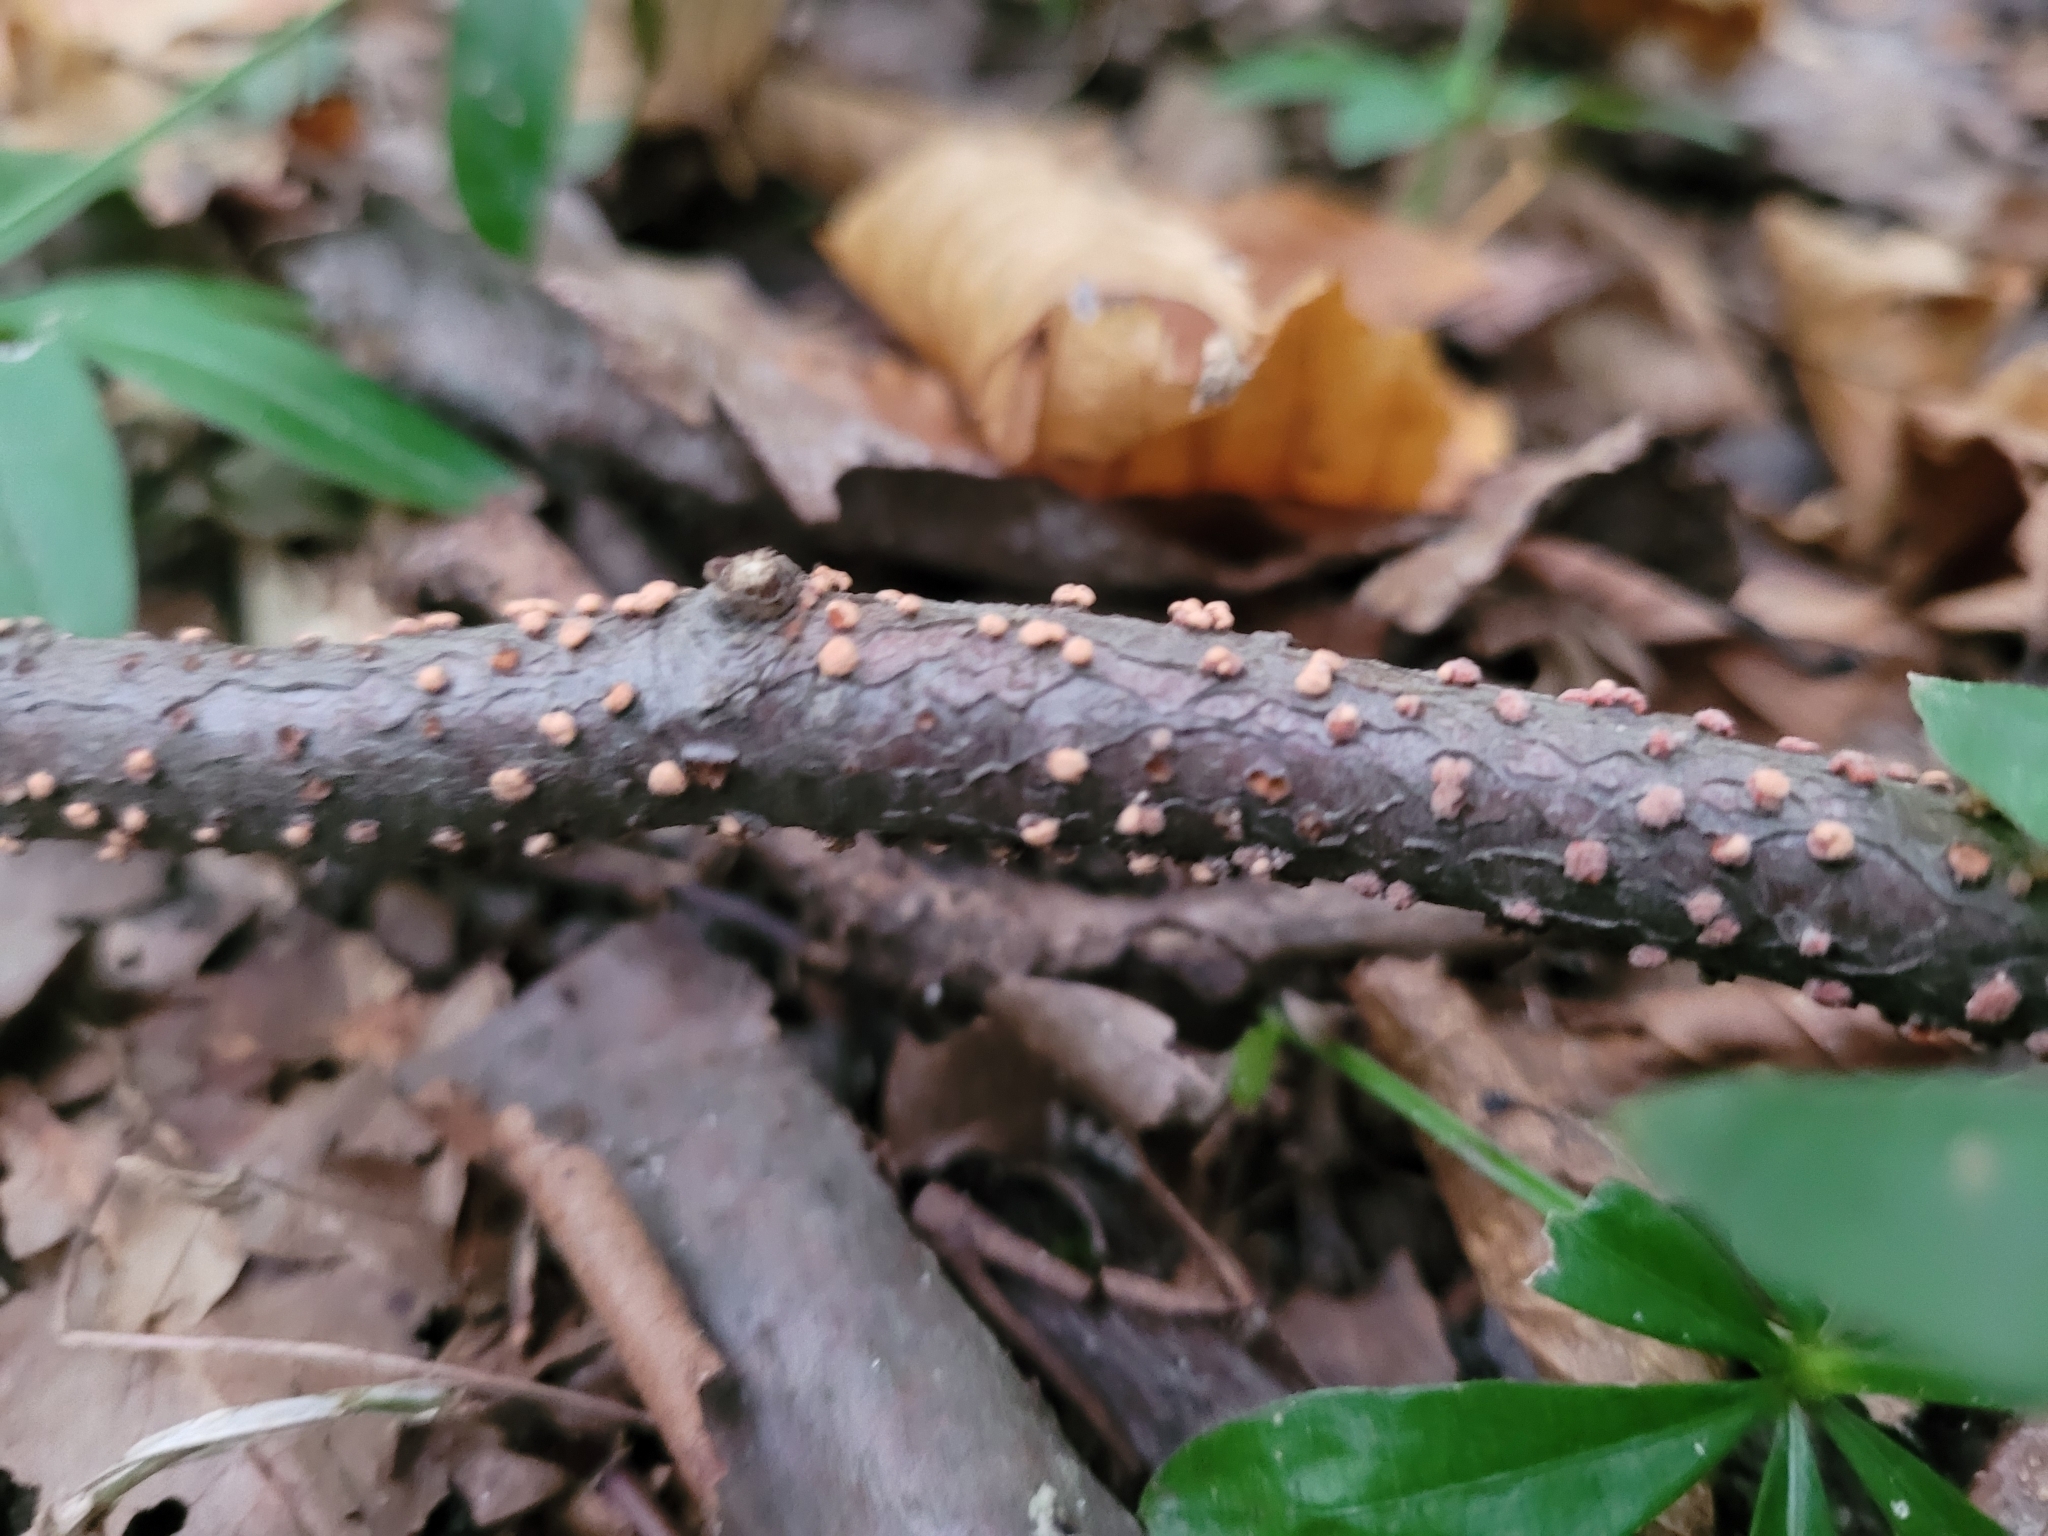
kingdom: Fungi
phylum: Ascomycota
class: Sordariomycetes
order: Hypocreales
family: Nectriaceae
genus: Nectria
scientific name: Nectria cinnabarina
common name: Coral spot
